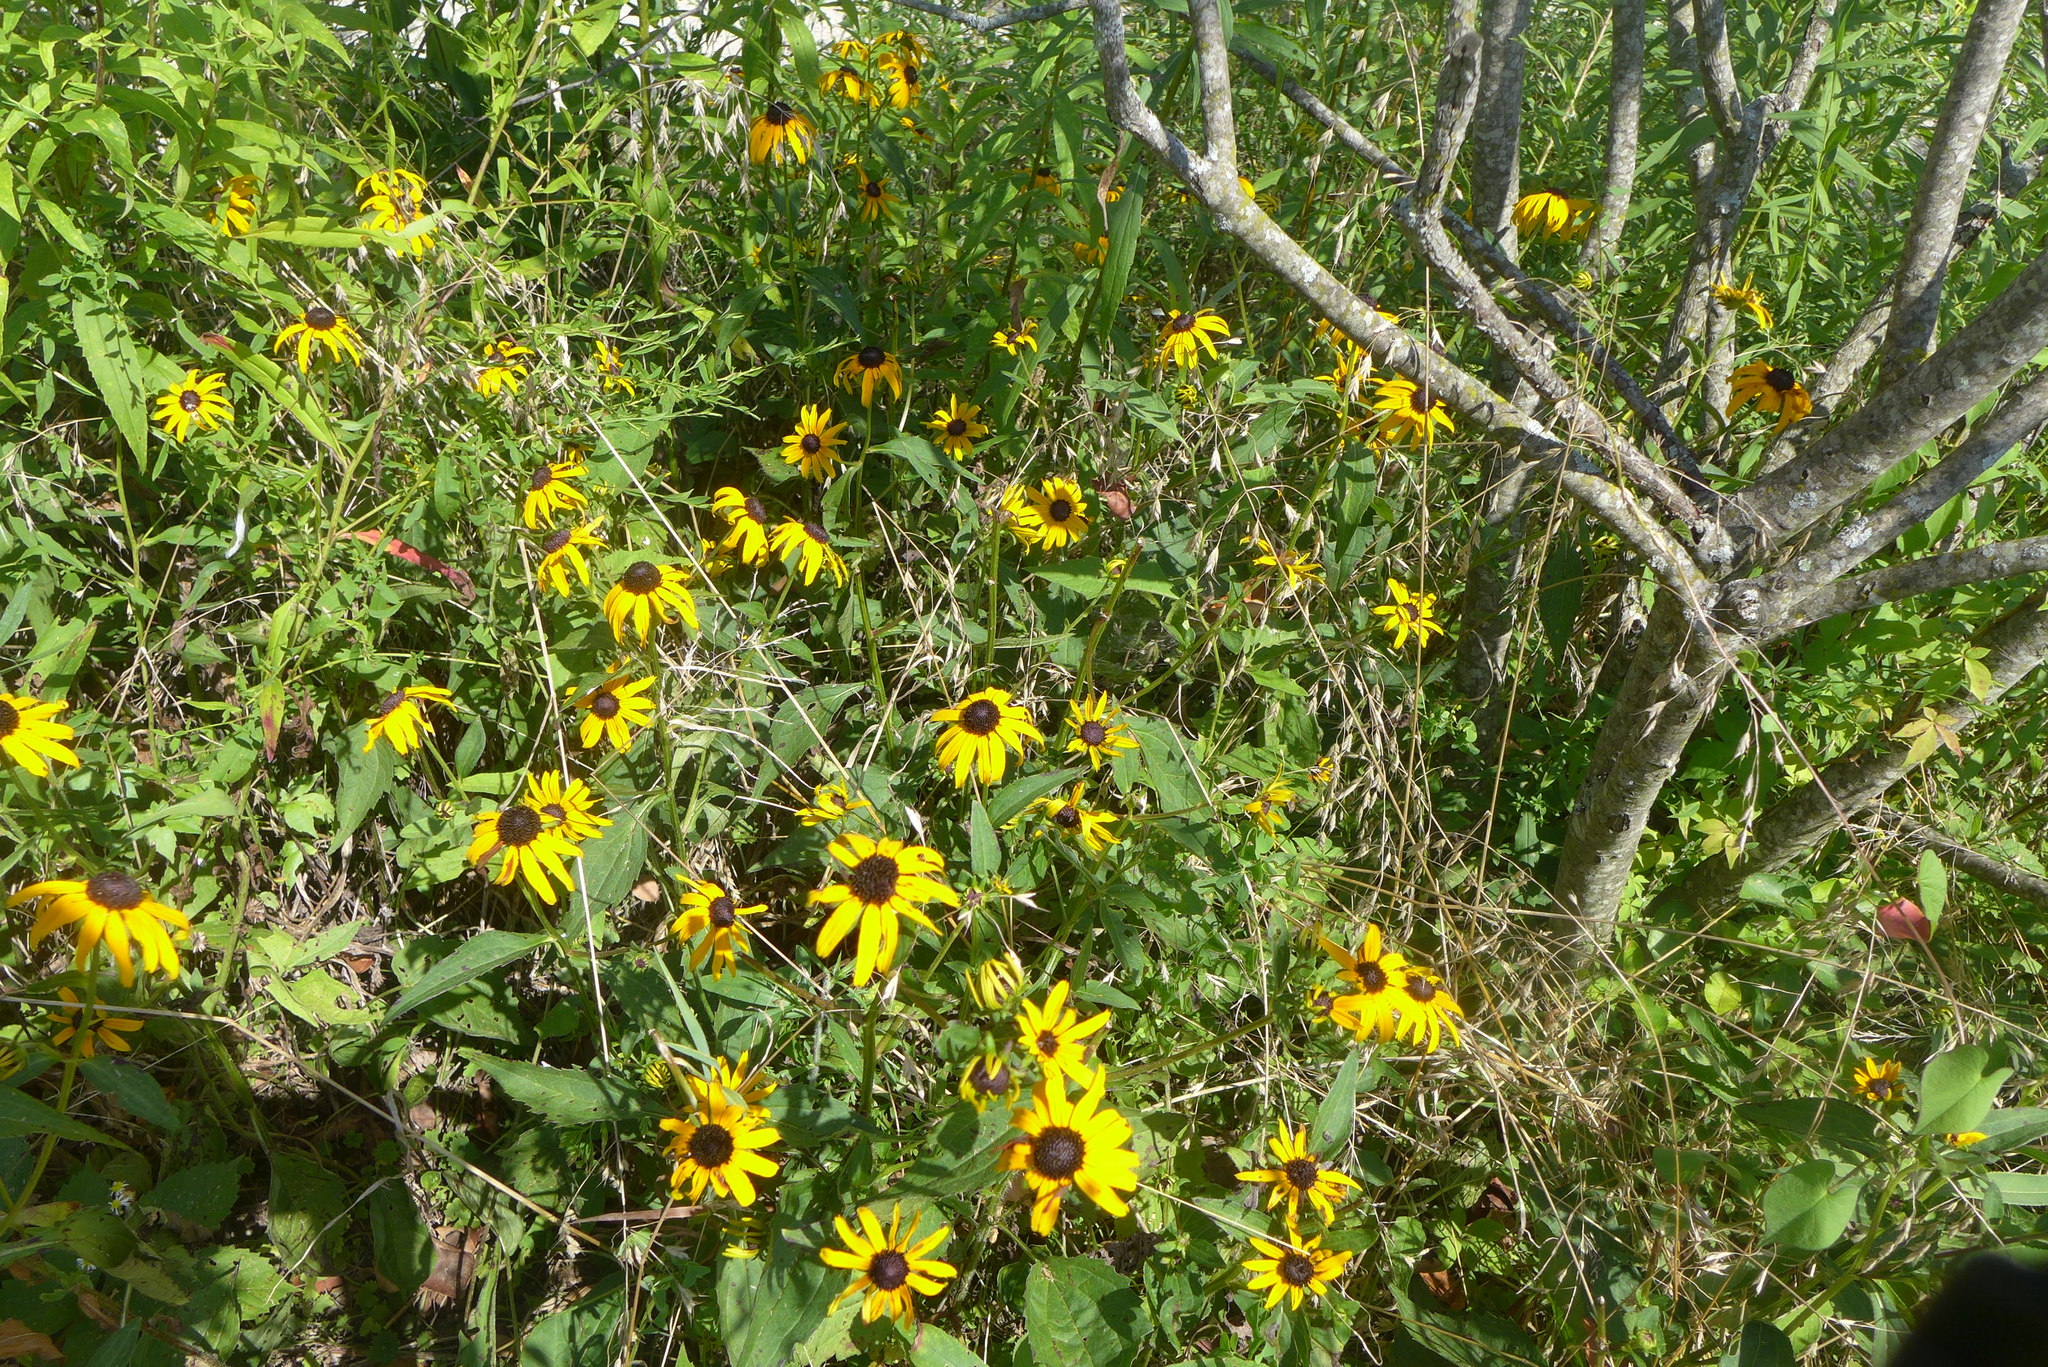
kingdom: Plantae
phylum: Tracheophyta
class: Magnoliopsida
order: Asterales
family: Asteraceae
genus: Rudbeckia
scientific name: Rudbeckia hirta
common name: Black-eyed-susan
